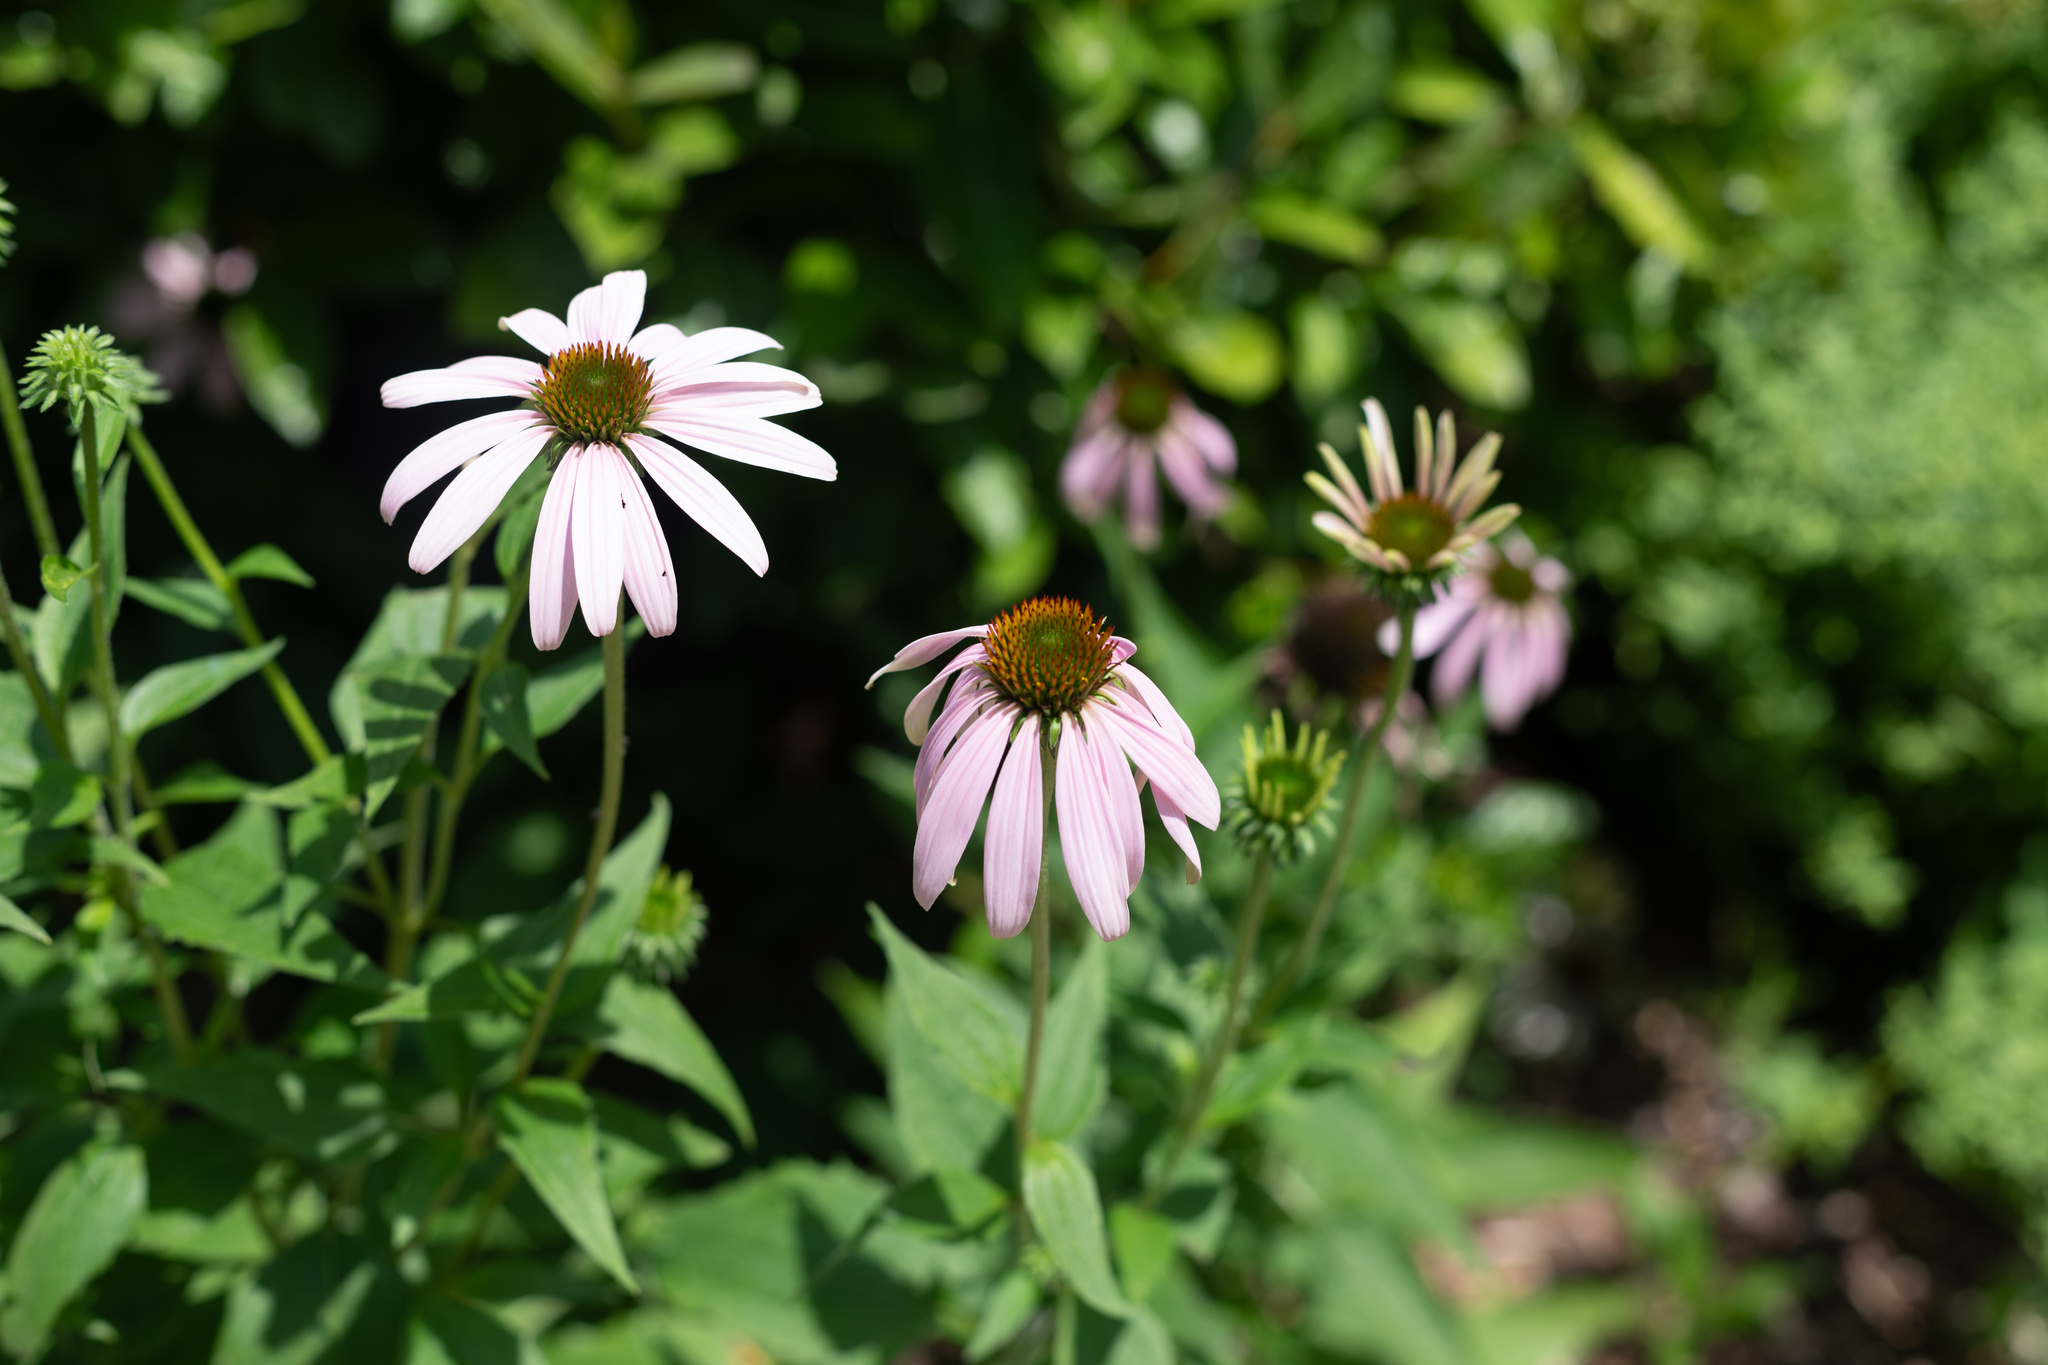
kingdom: Plantae
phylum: Tracheophyta
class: Magnoliopsida
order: Asterales
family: Asteraceae
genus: Echinacea
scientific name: Echinacea purpurea
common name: Broad-leaved purple coneflower
